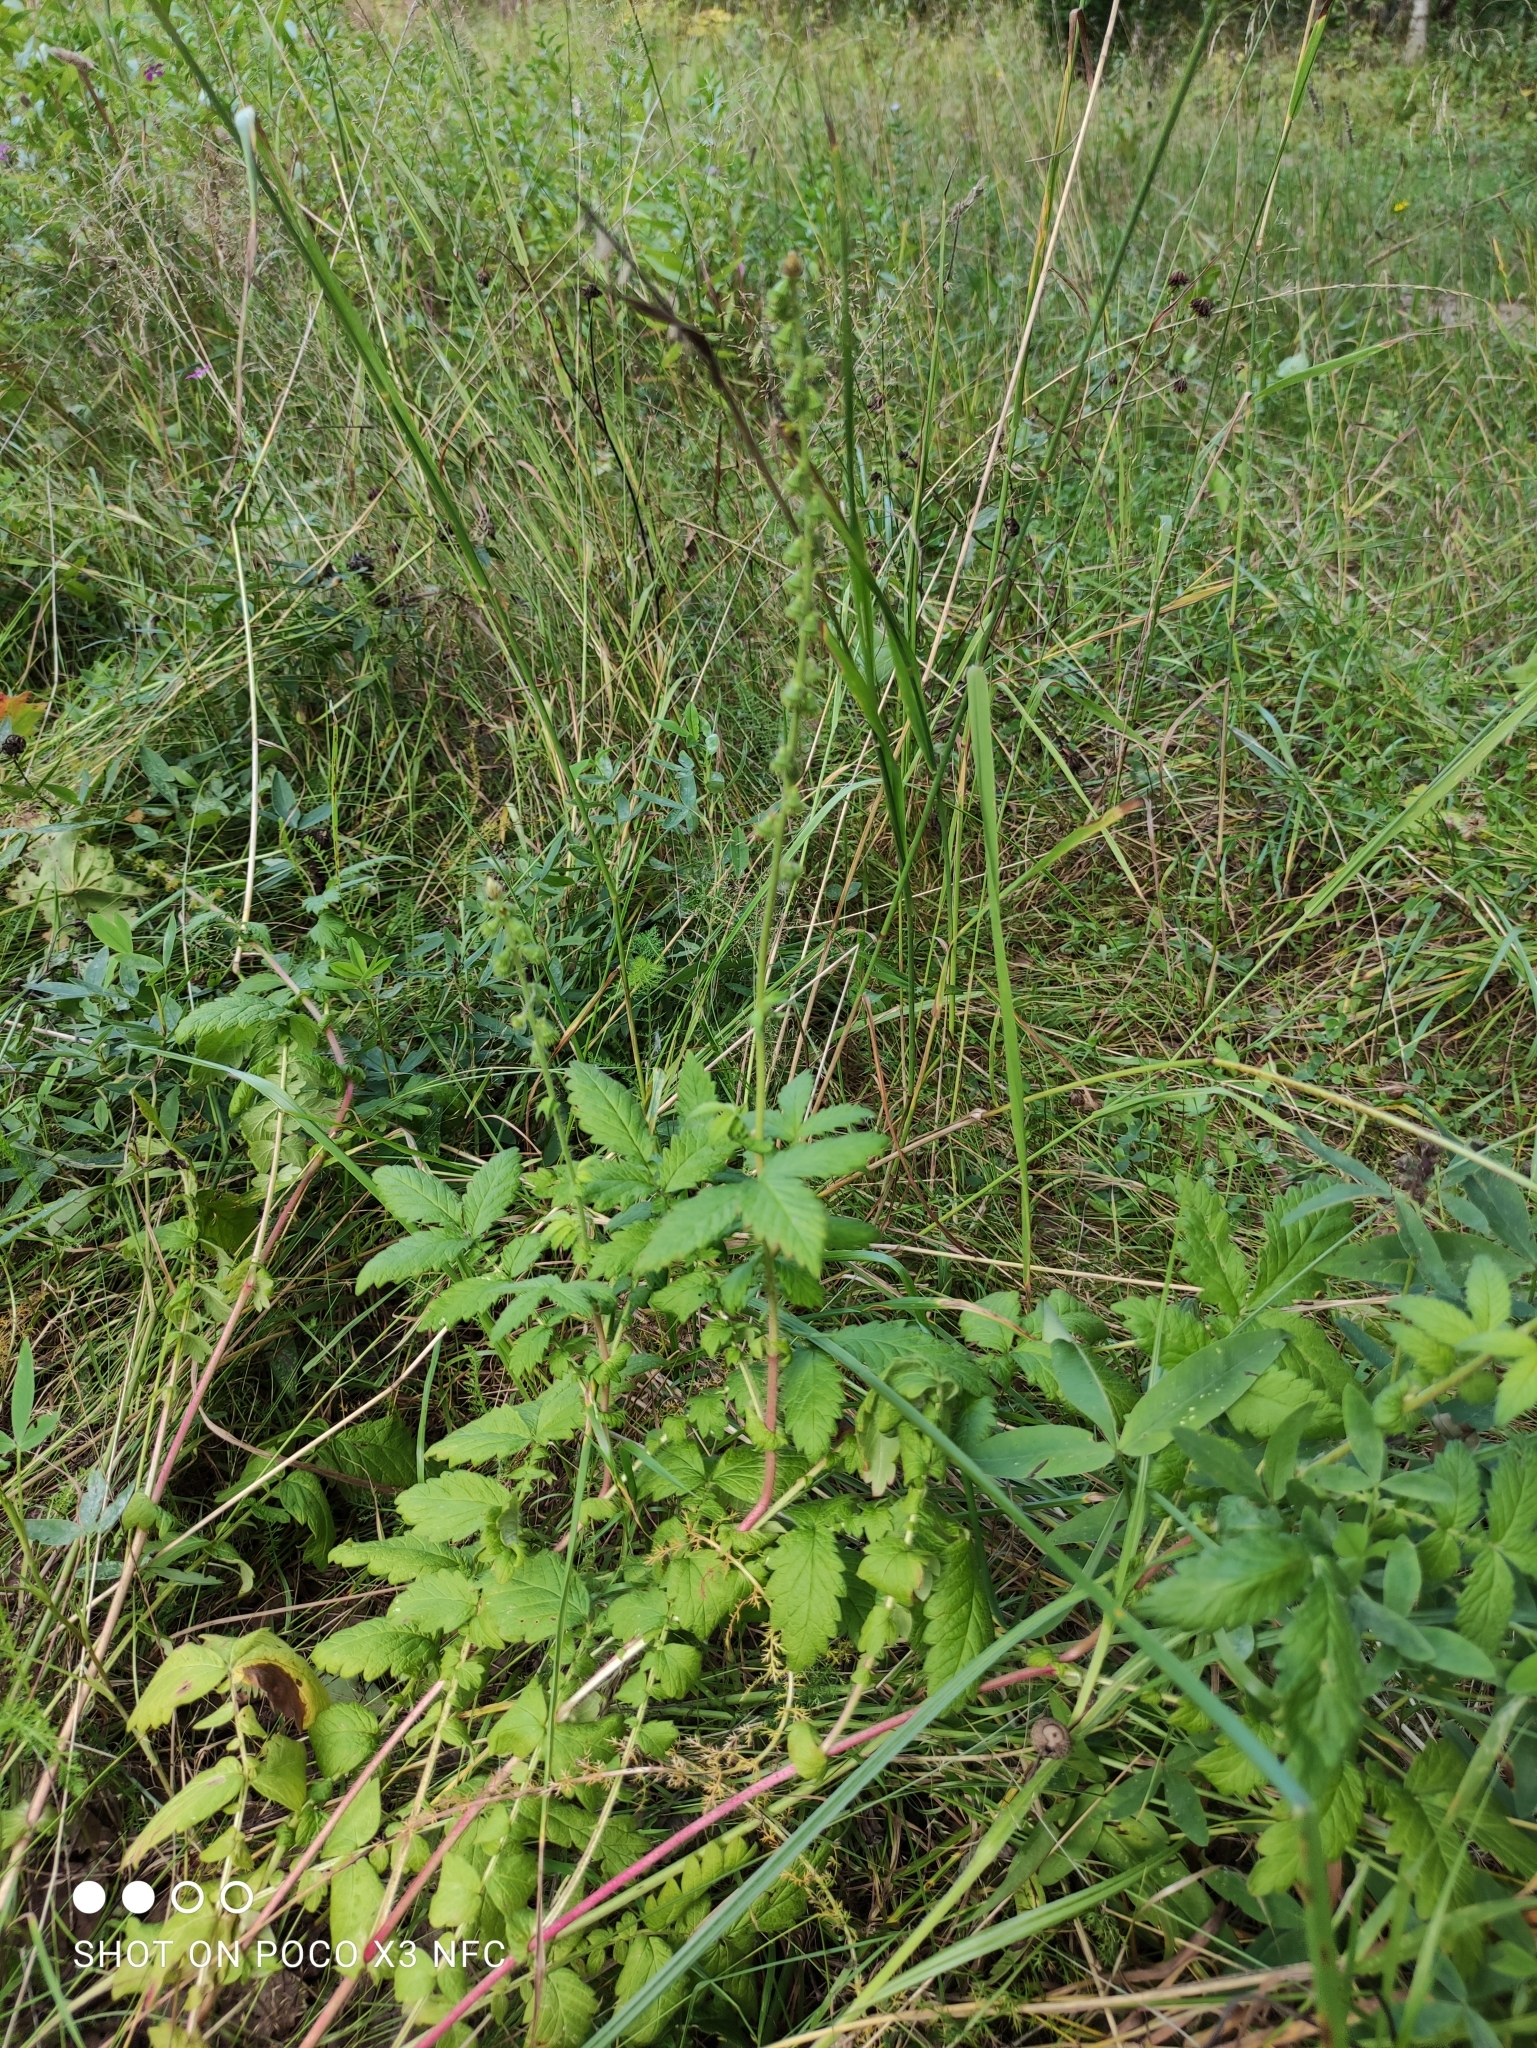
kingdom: Plantae
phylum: Tracheophyta
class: Magnoliopsida
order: Rosales
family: Rosaceae
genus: Agrimonia
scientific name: Agrimonia eupatoria
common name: Agrimony
